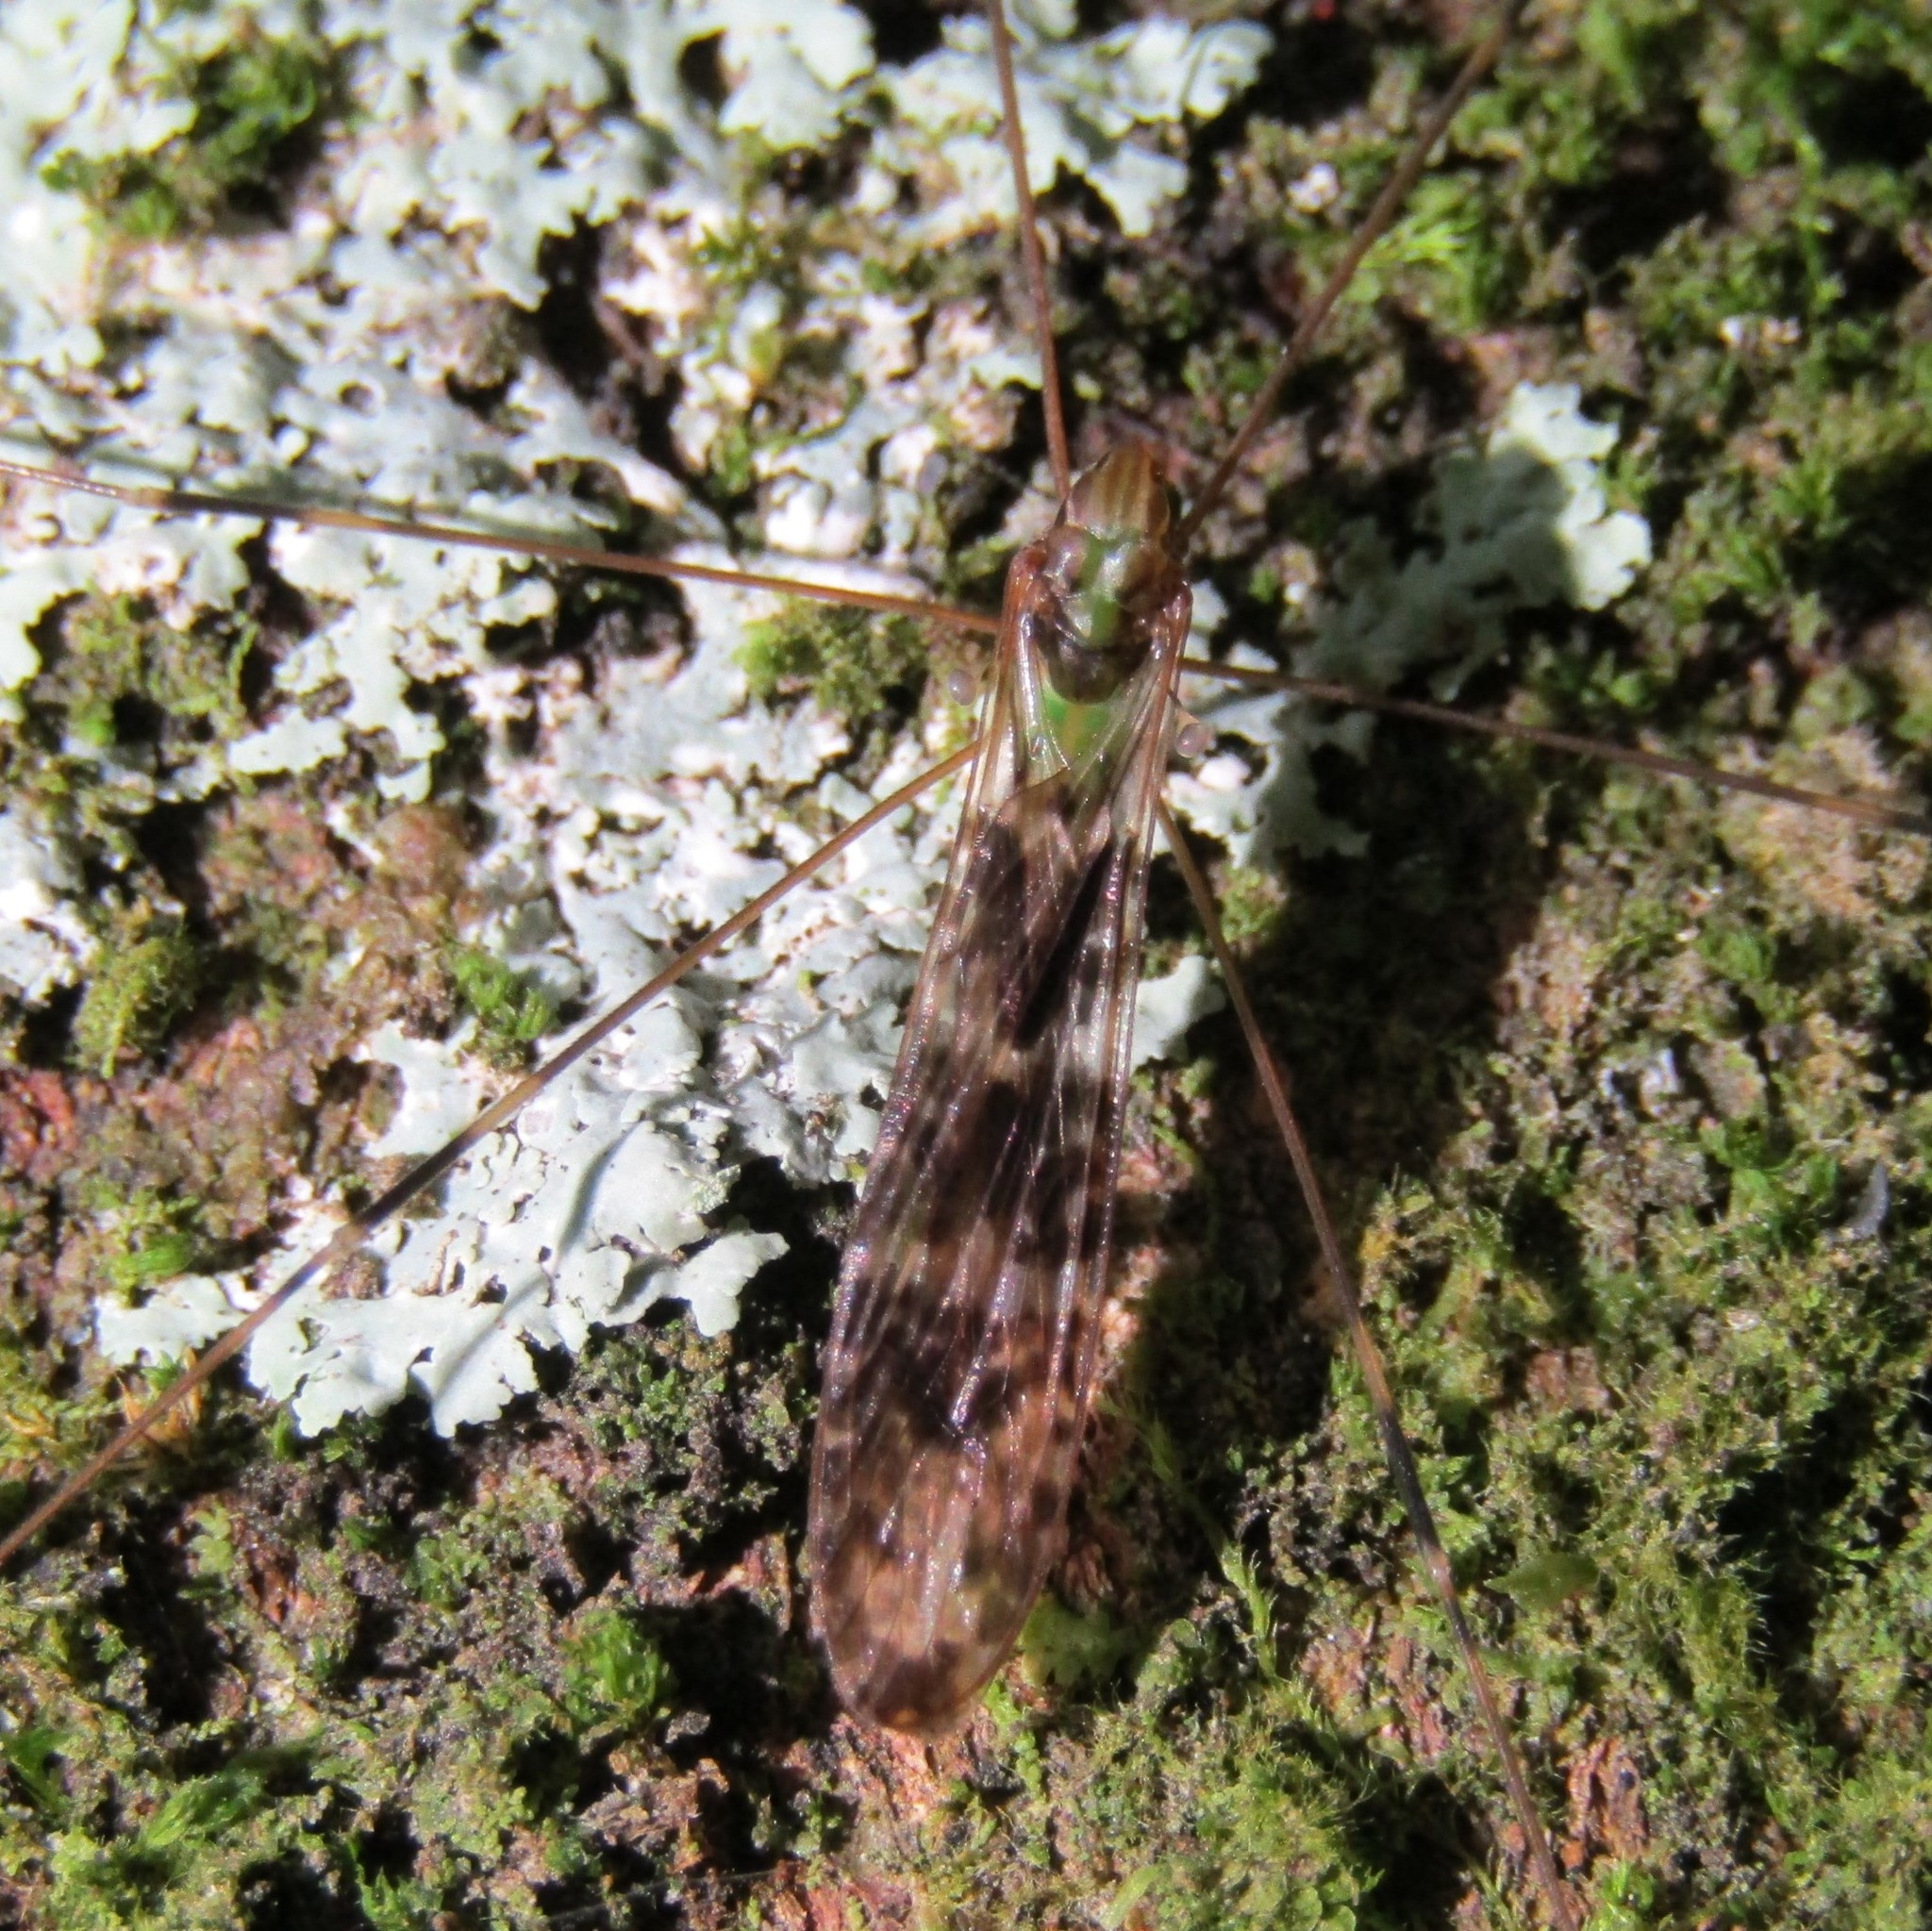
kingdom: Animalia
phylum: Arthropoda
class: Insecta
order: Diptera
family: Limoniidae
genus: Discobola
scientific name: Discobola dohrni
